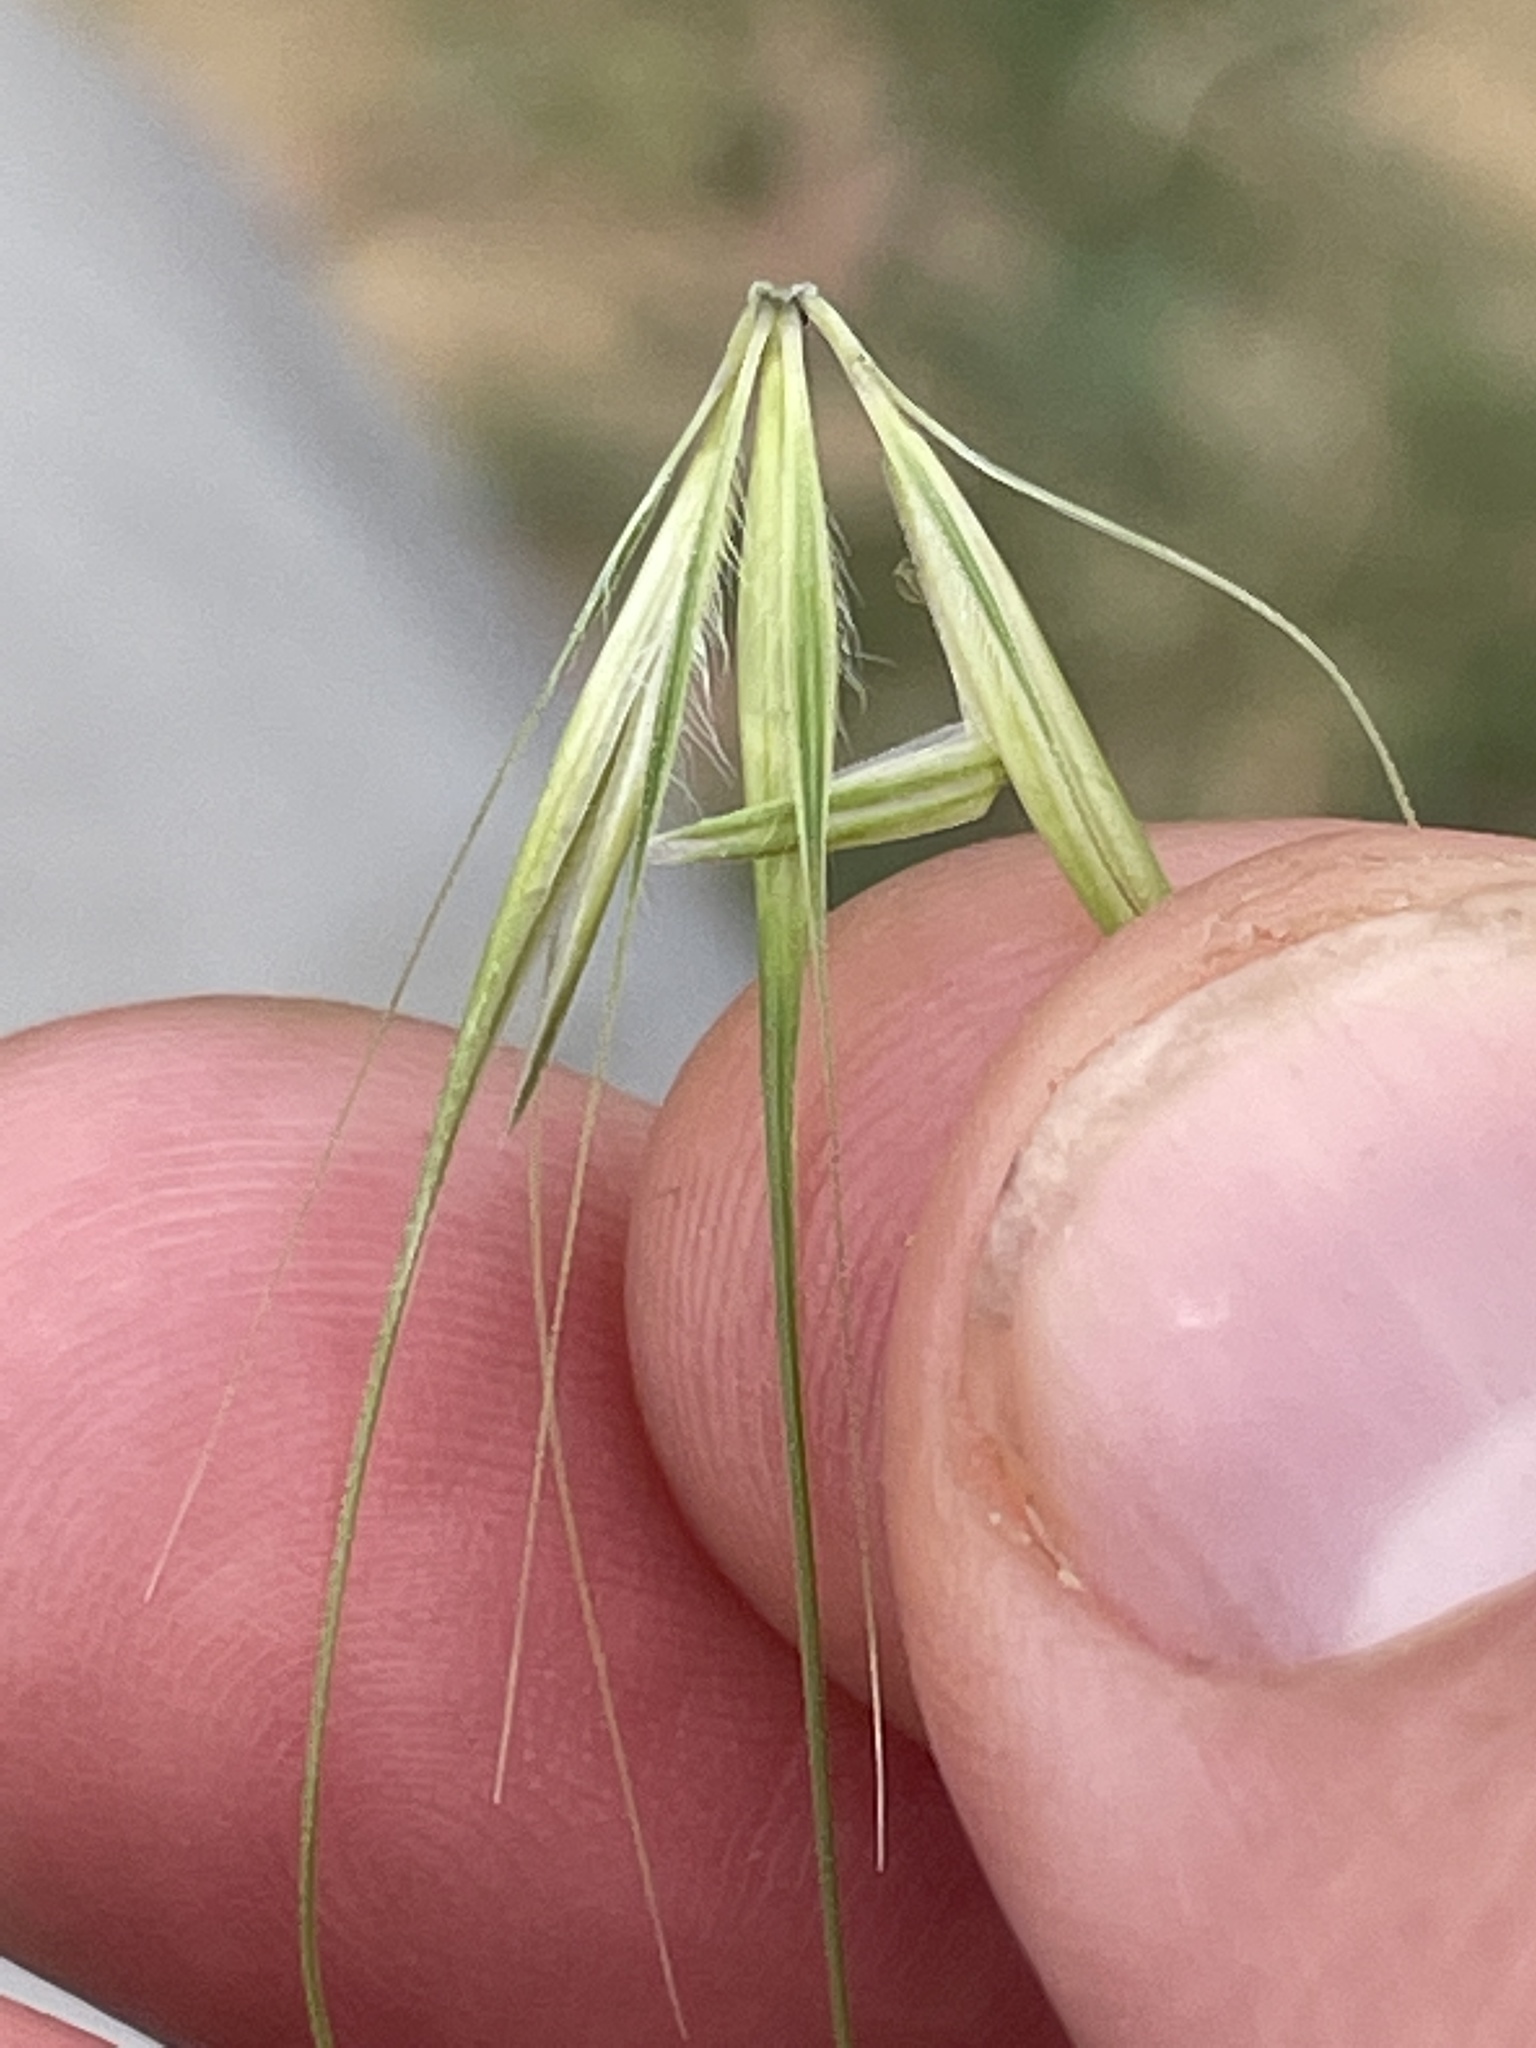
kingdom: Plantae
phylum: Tracheophyta
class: Liliopsida
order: Poales
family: Poaceae
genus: Hordeum
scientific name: Hordeum murinum
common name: Wall barley
